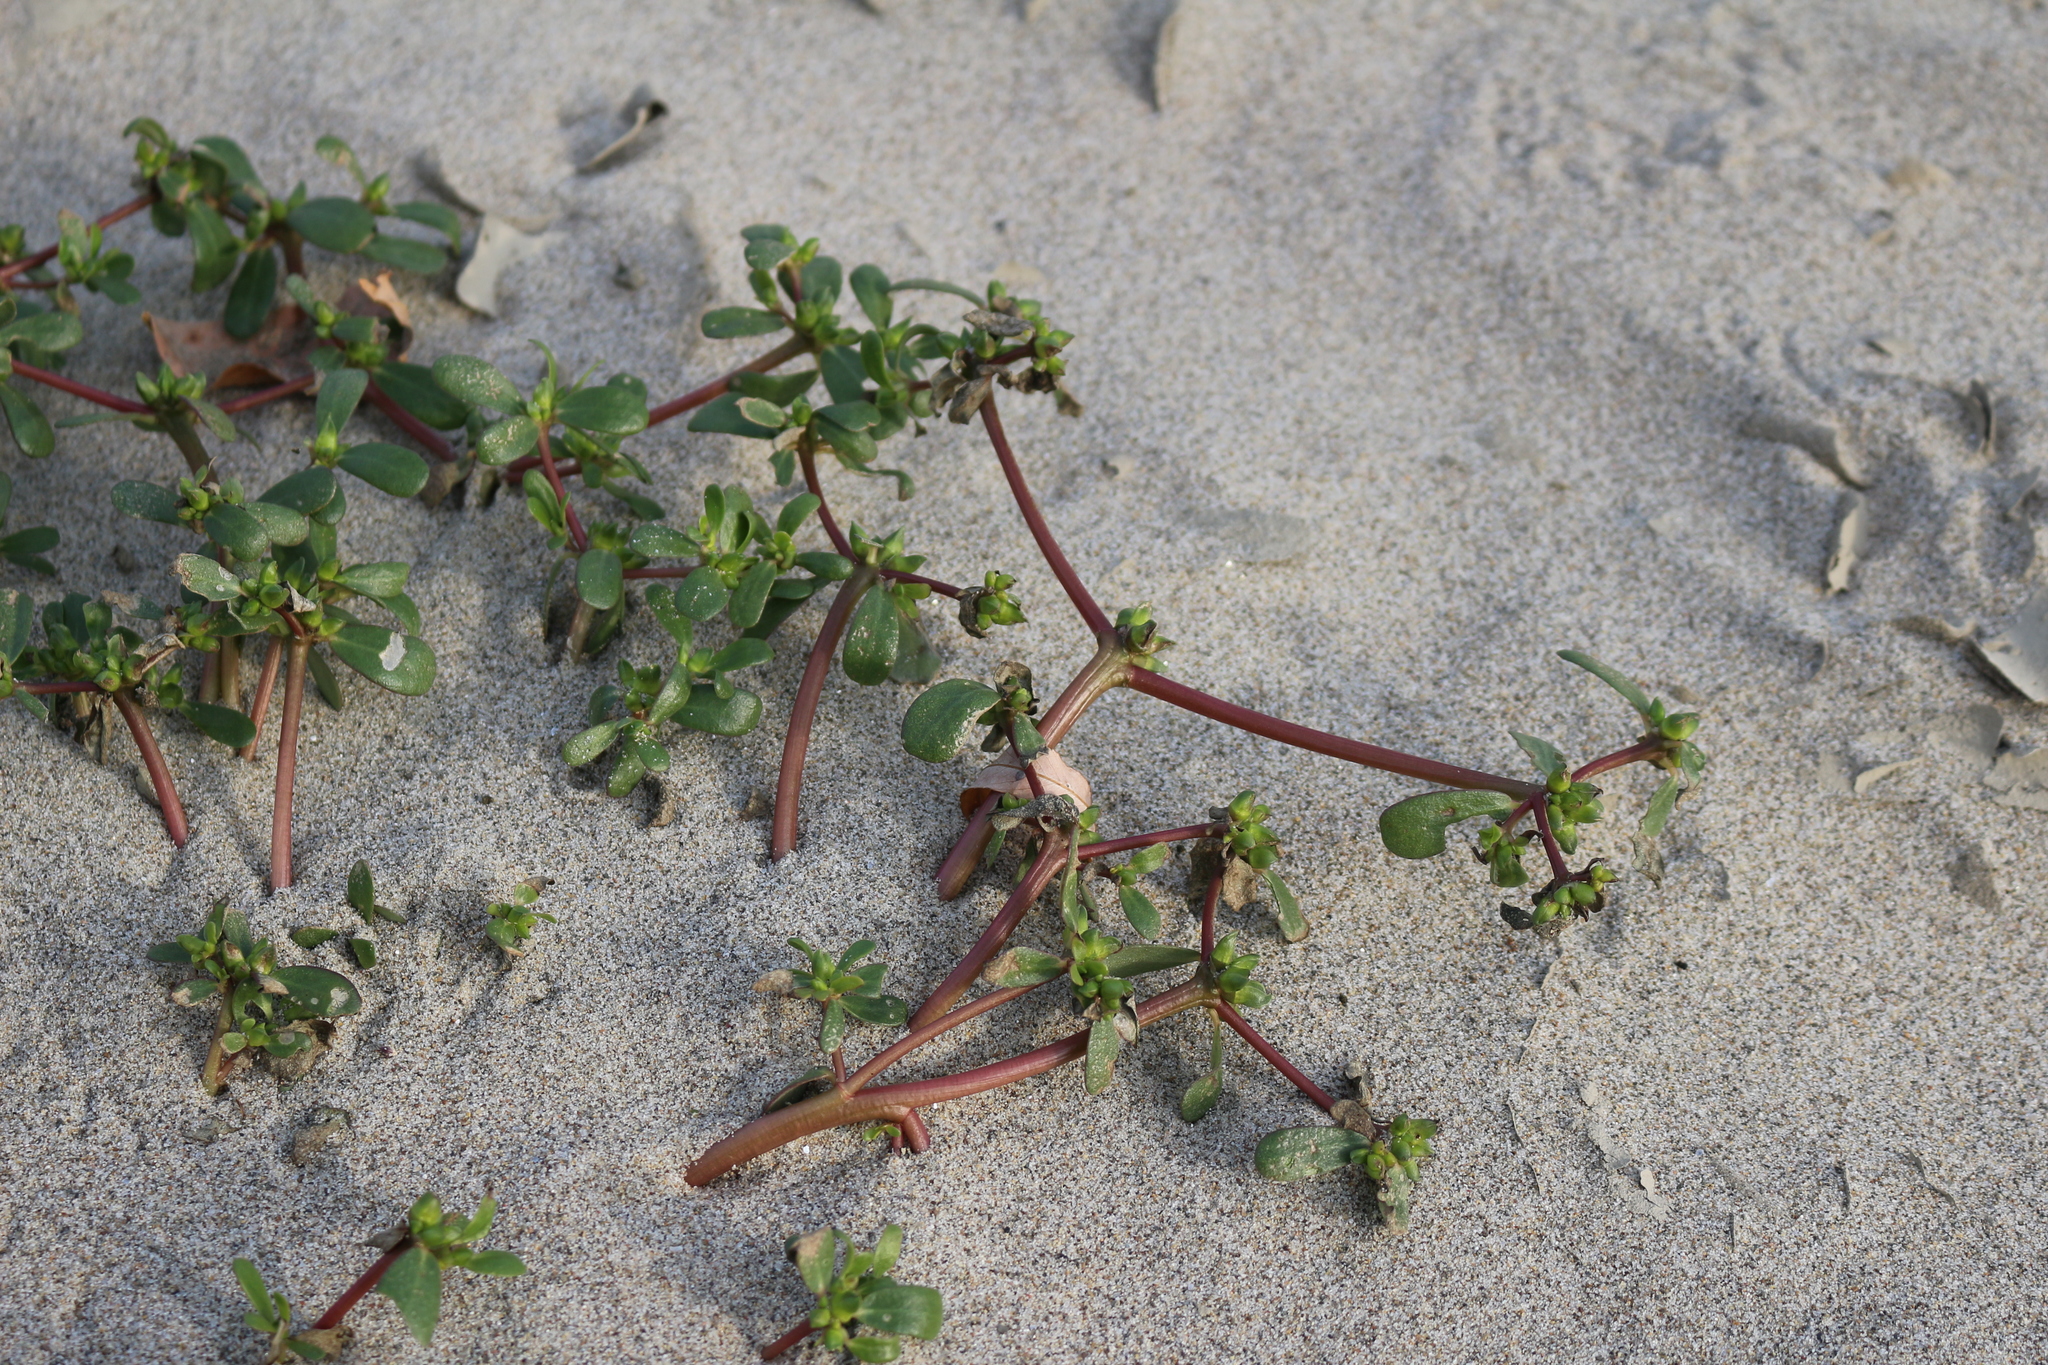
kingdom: Plantae
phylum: Tracheophyta
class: Magnoliopsida
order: Caryophyllales
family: Portulacaceae
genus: Portulaca
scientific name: Portulaca oleracea
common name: Common purslane
